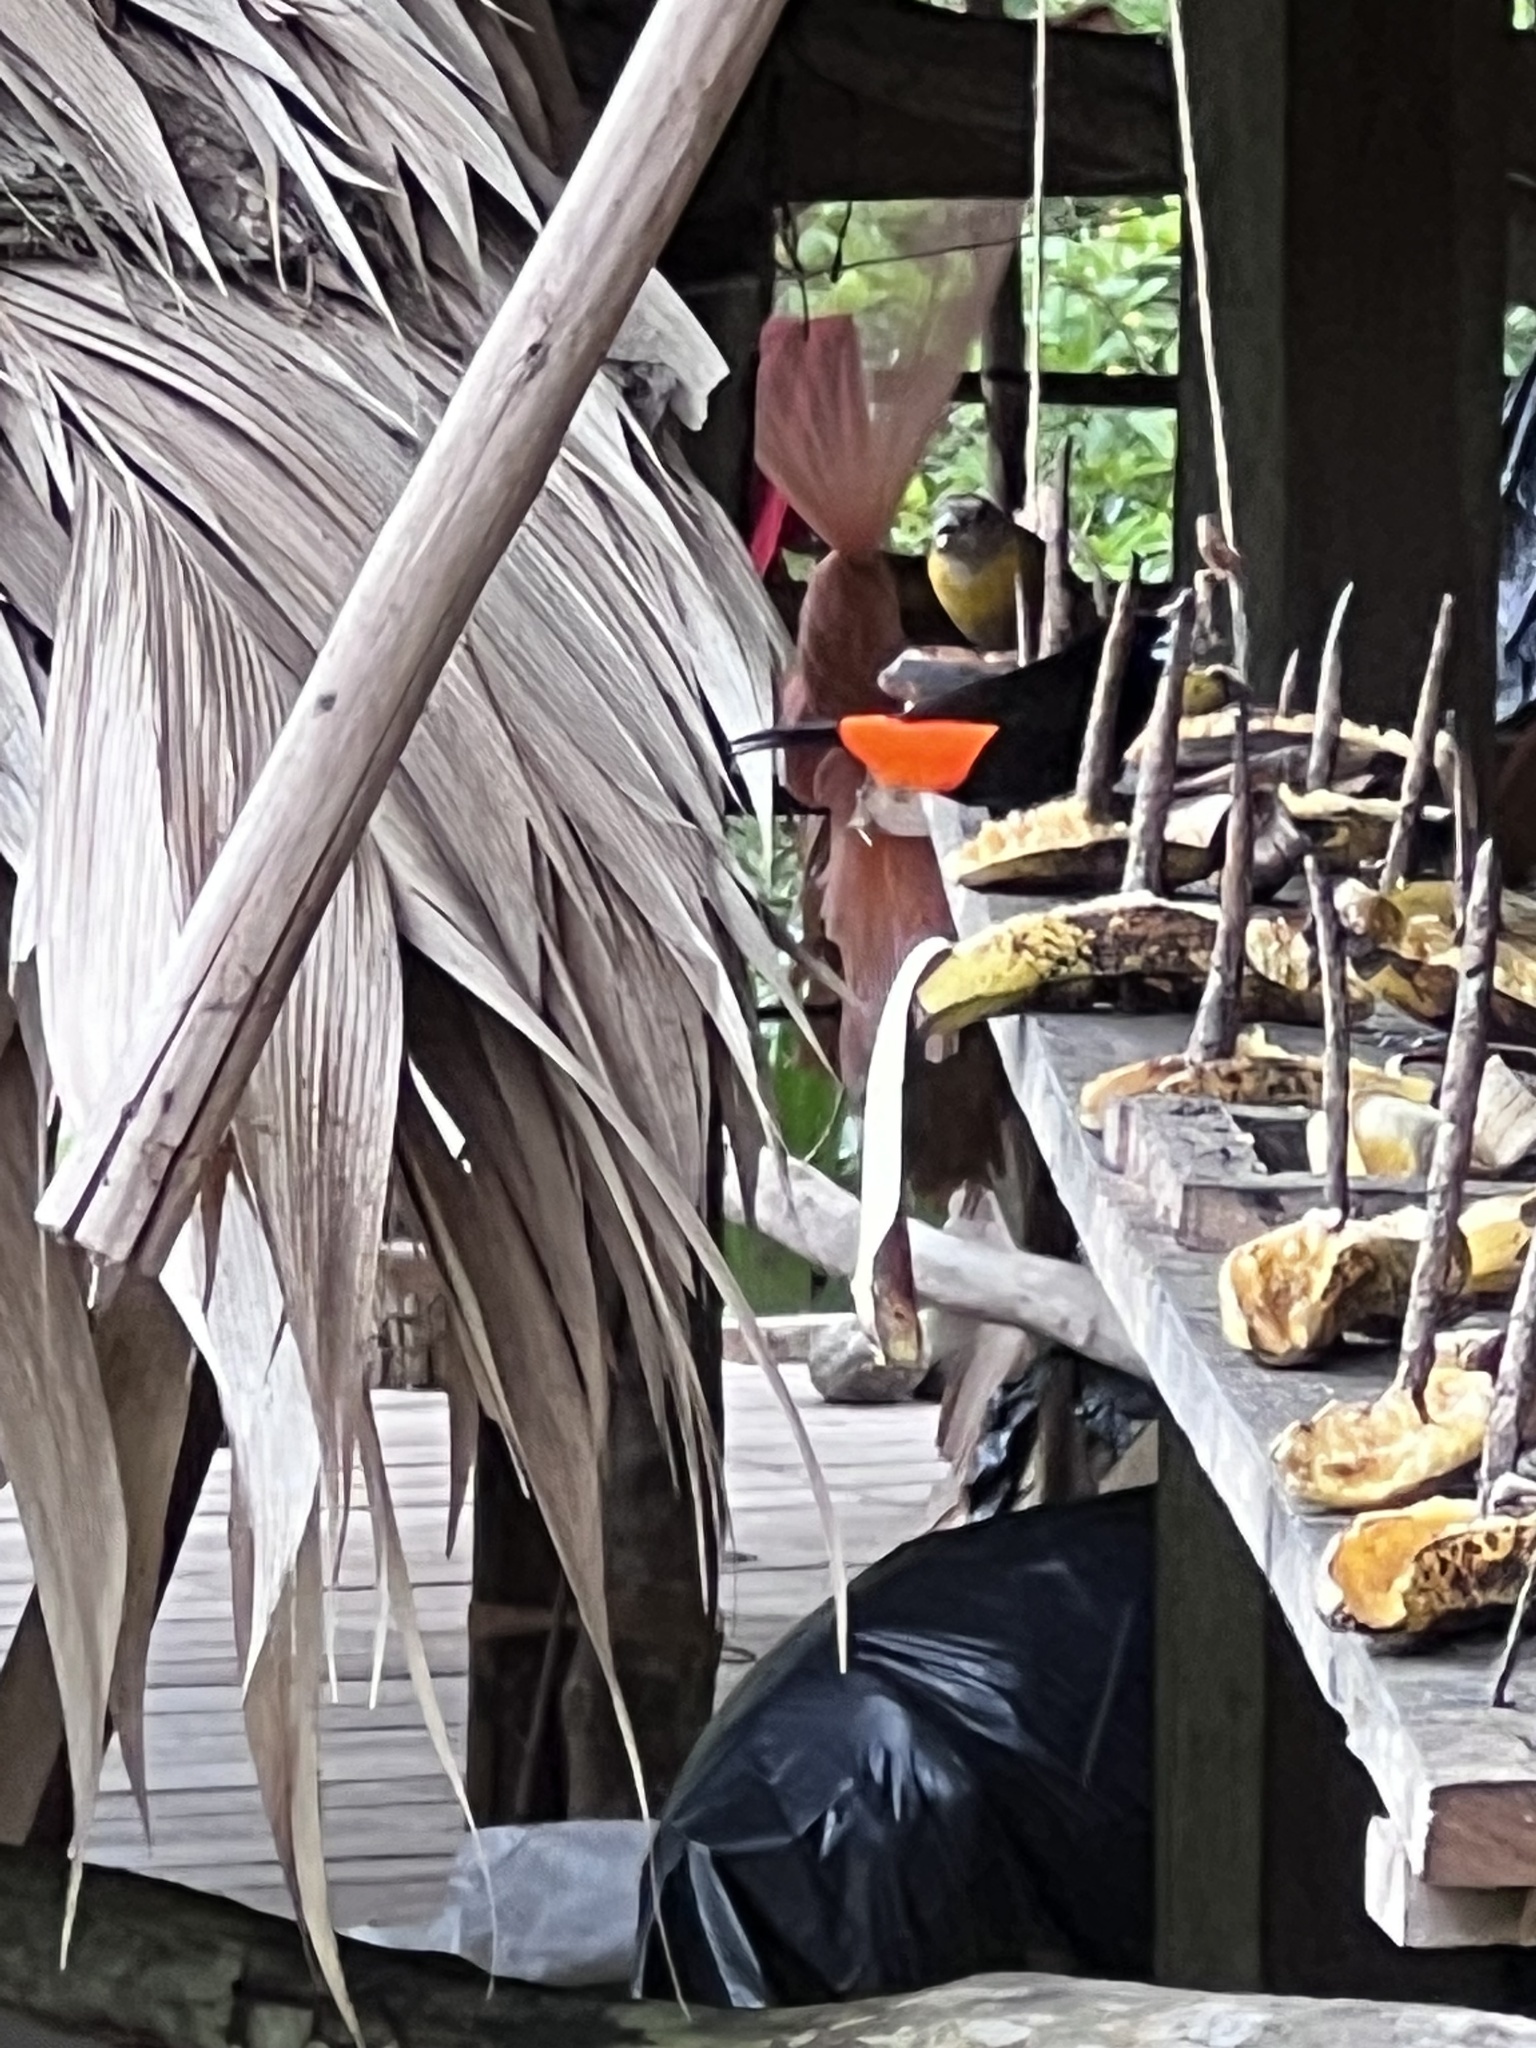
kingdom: Animalia
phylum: Chordata
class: Aves
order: Passeriformes
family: Thraupidae
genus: Ramphocelus
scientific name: Ramphocelus passerinii
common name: Passerini's tanager
